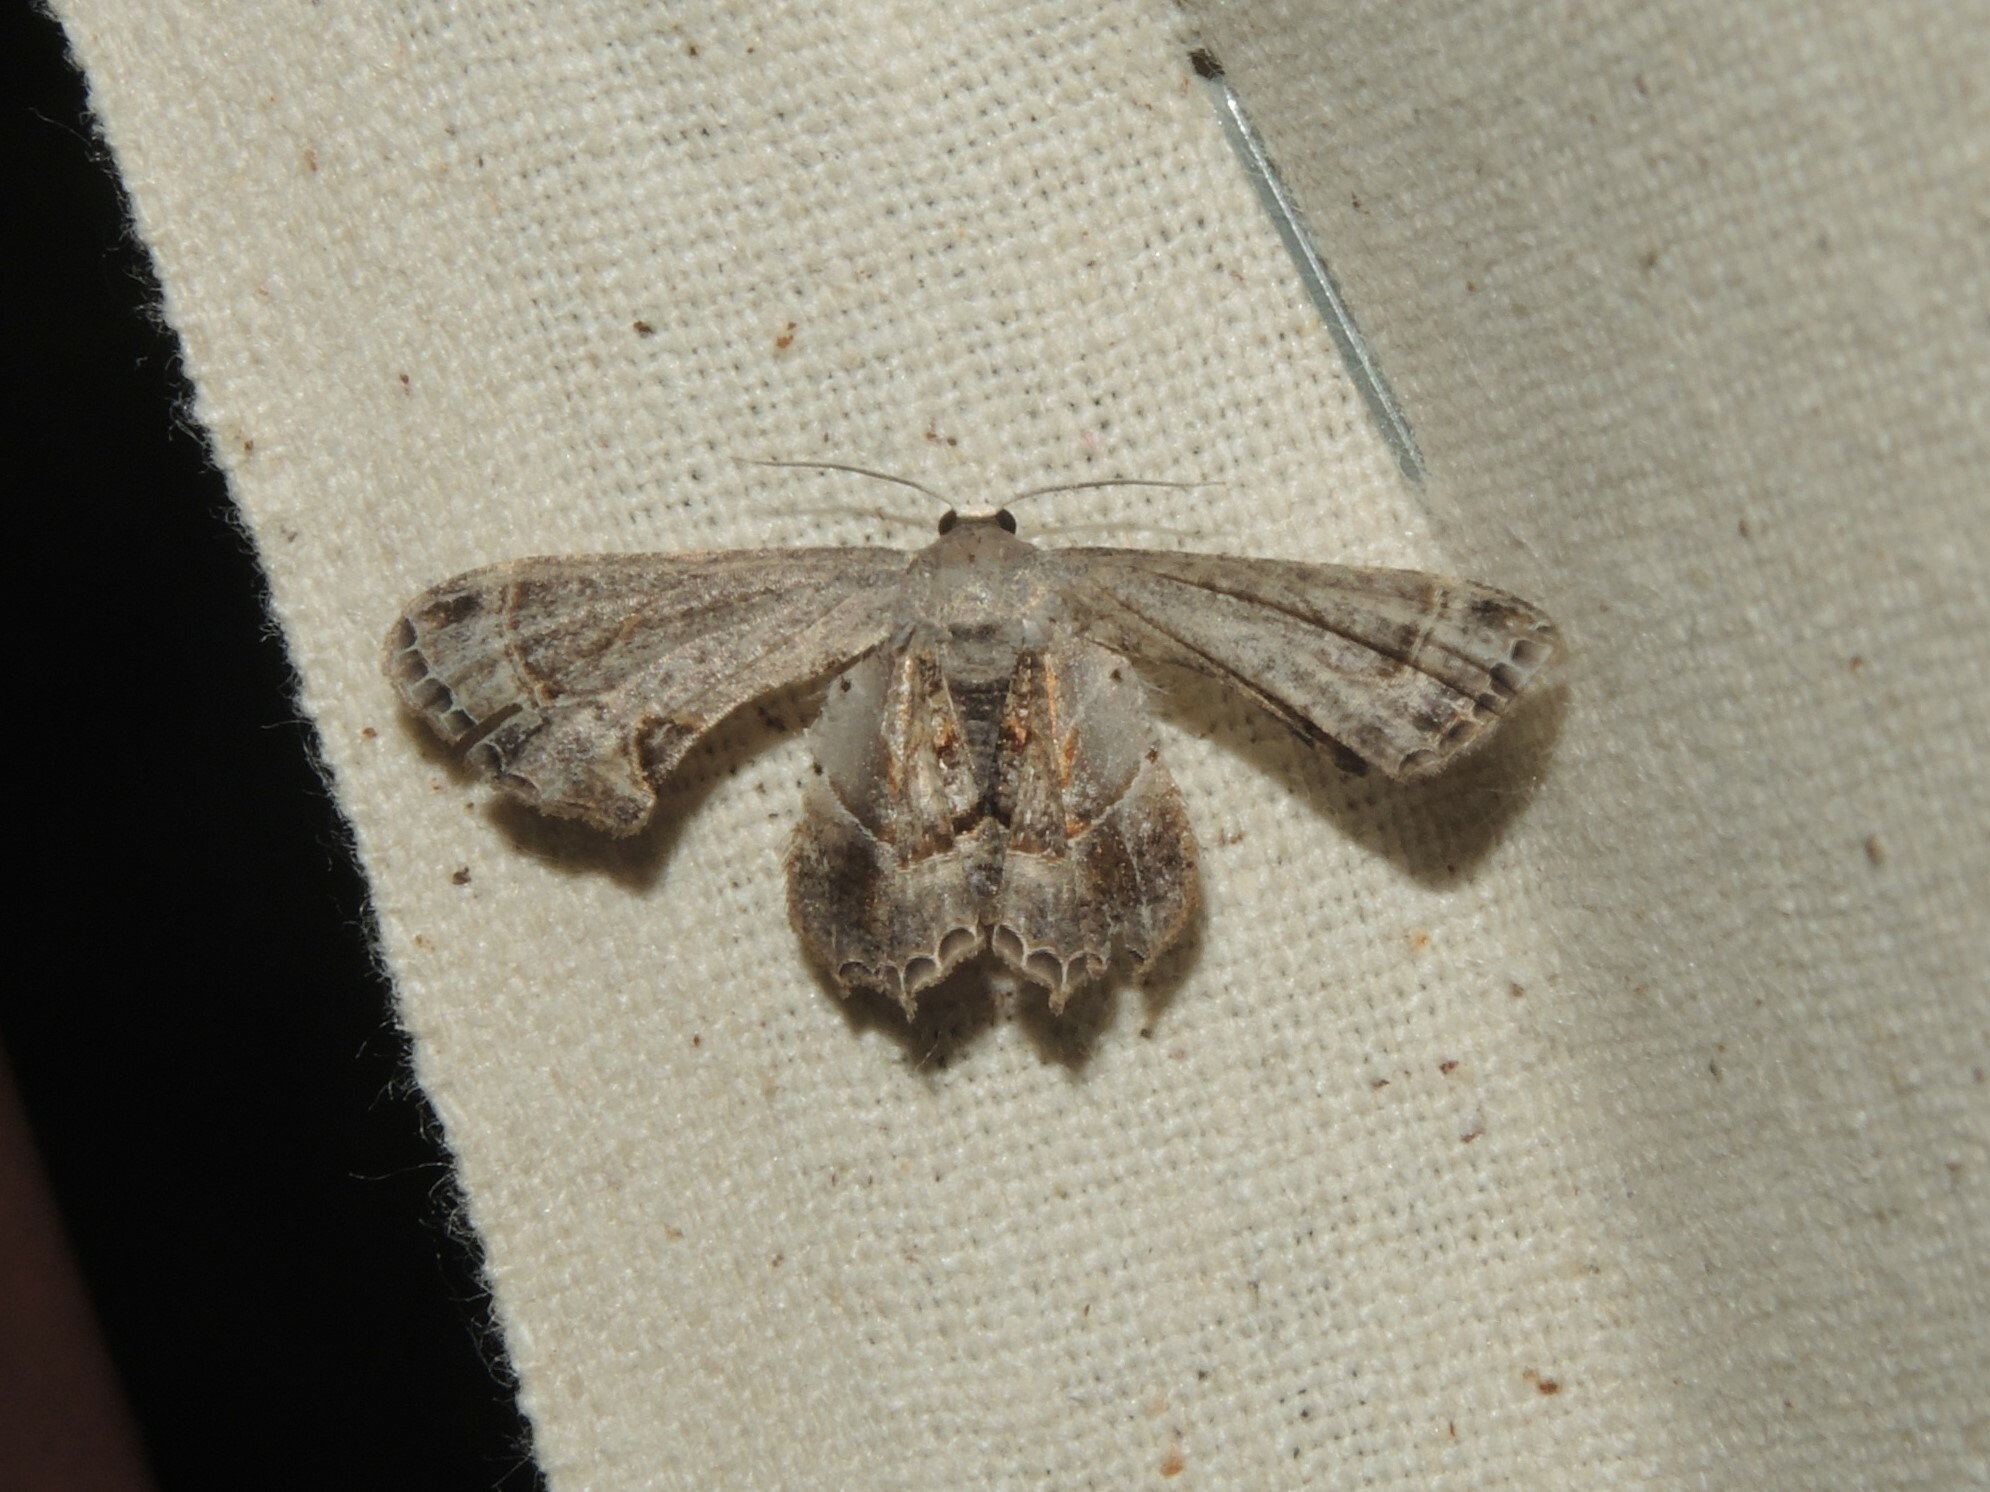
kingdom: Animalia
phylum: Arthropoda
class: Insecta
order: Lepidoptera
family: Uraniidae
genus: Phazaca
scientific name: Phazaca theclata
